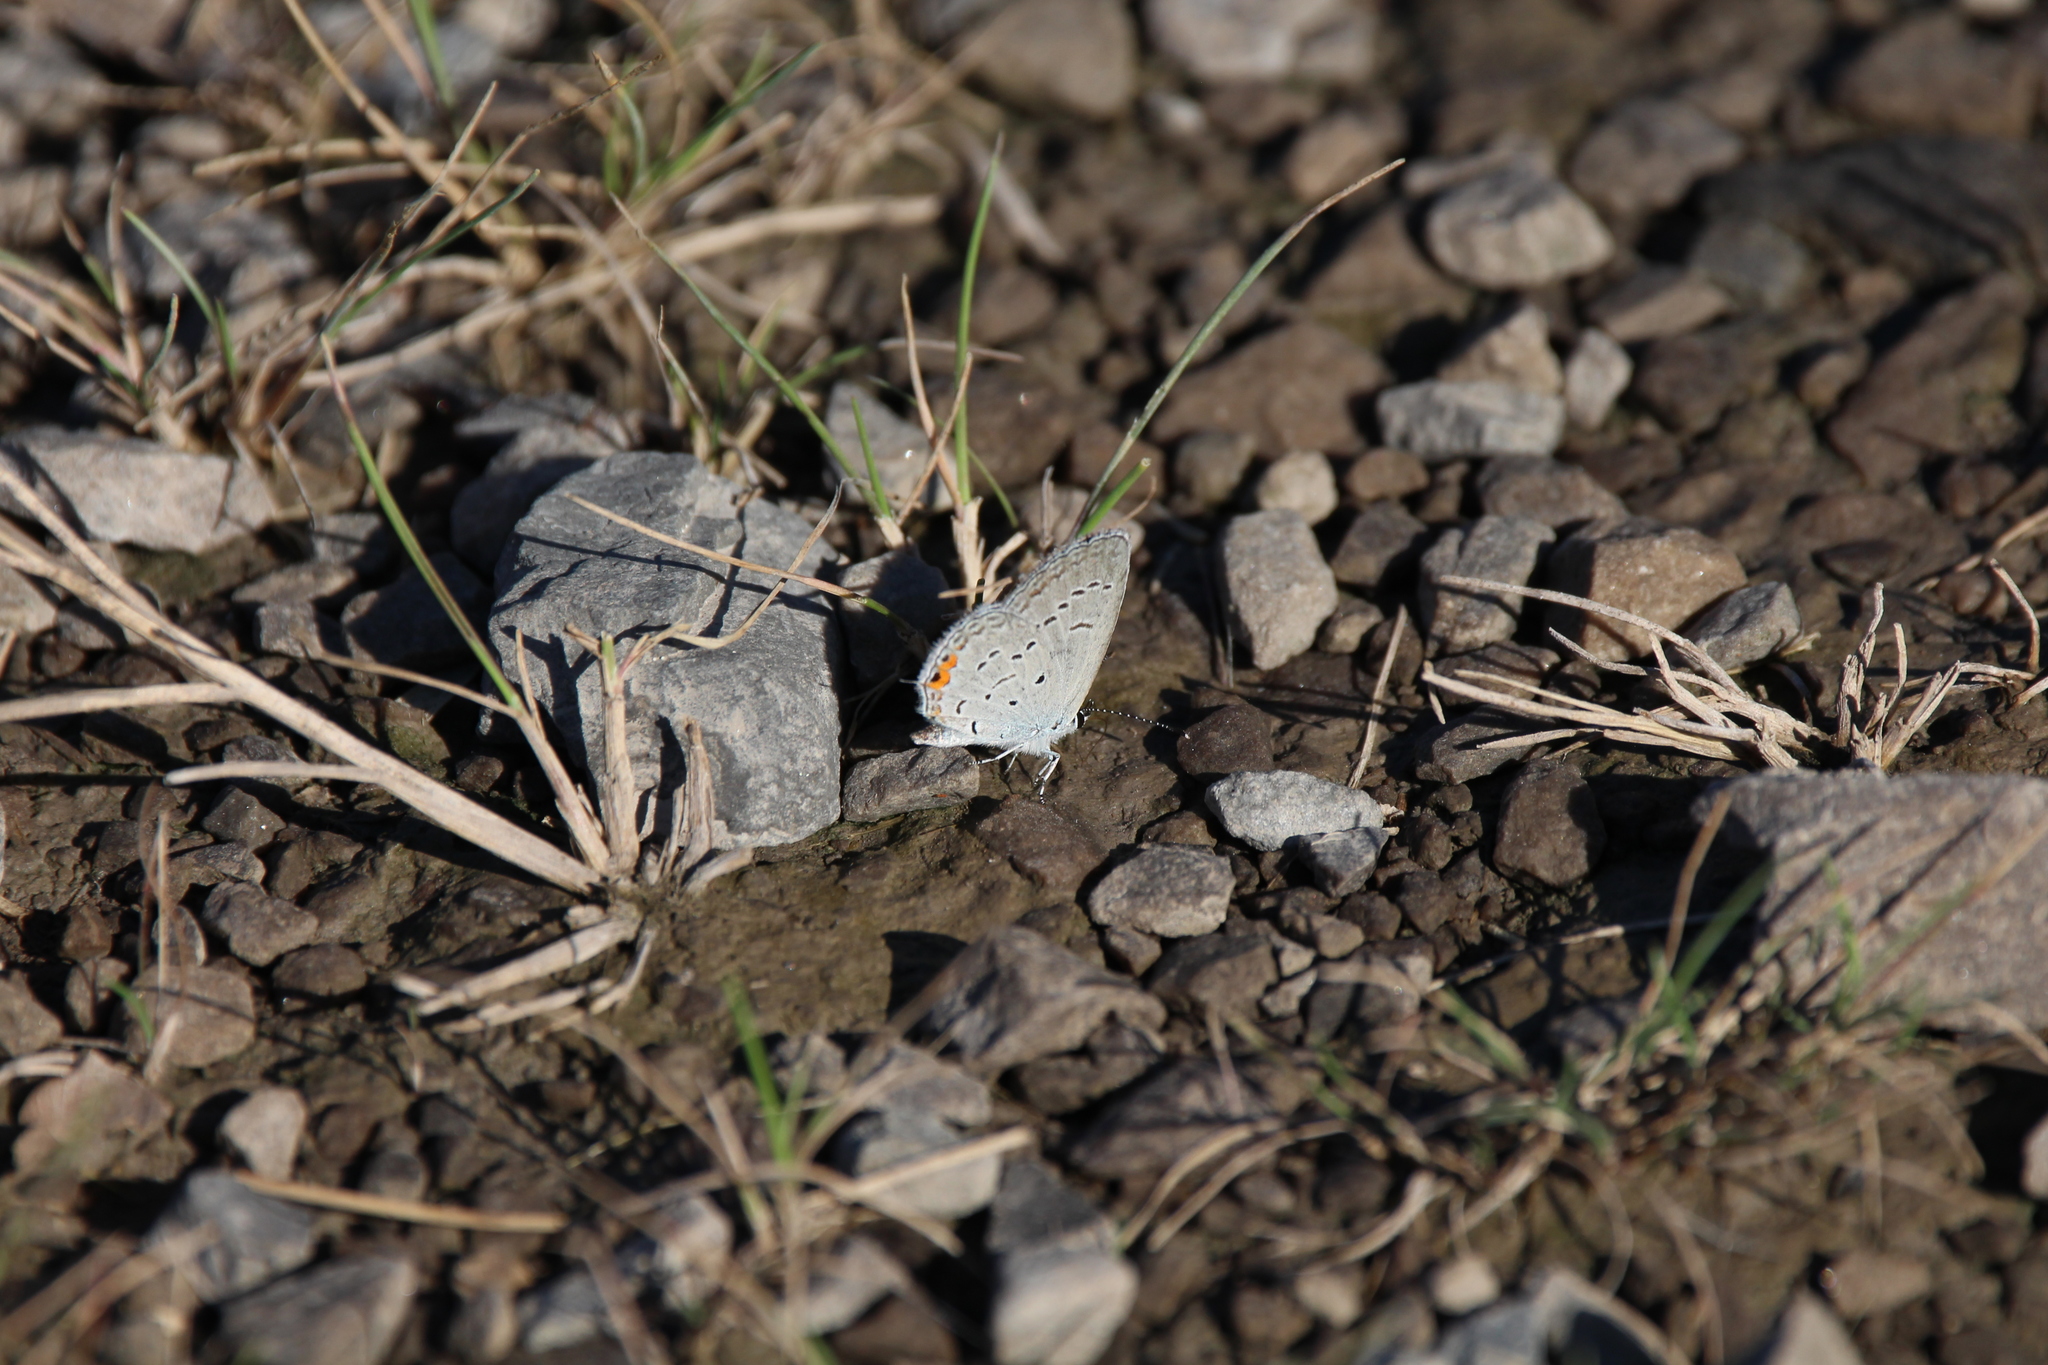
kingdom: Animalia
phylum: Arthropoda
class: Insecta
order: Lepidoptera
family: Lycaenidae
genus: Elkalyce
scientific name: Elkalyce comyntas
